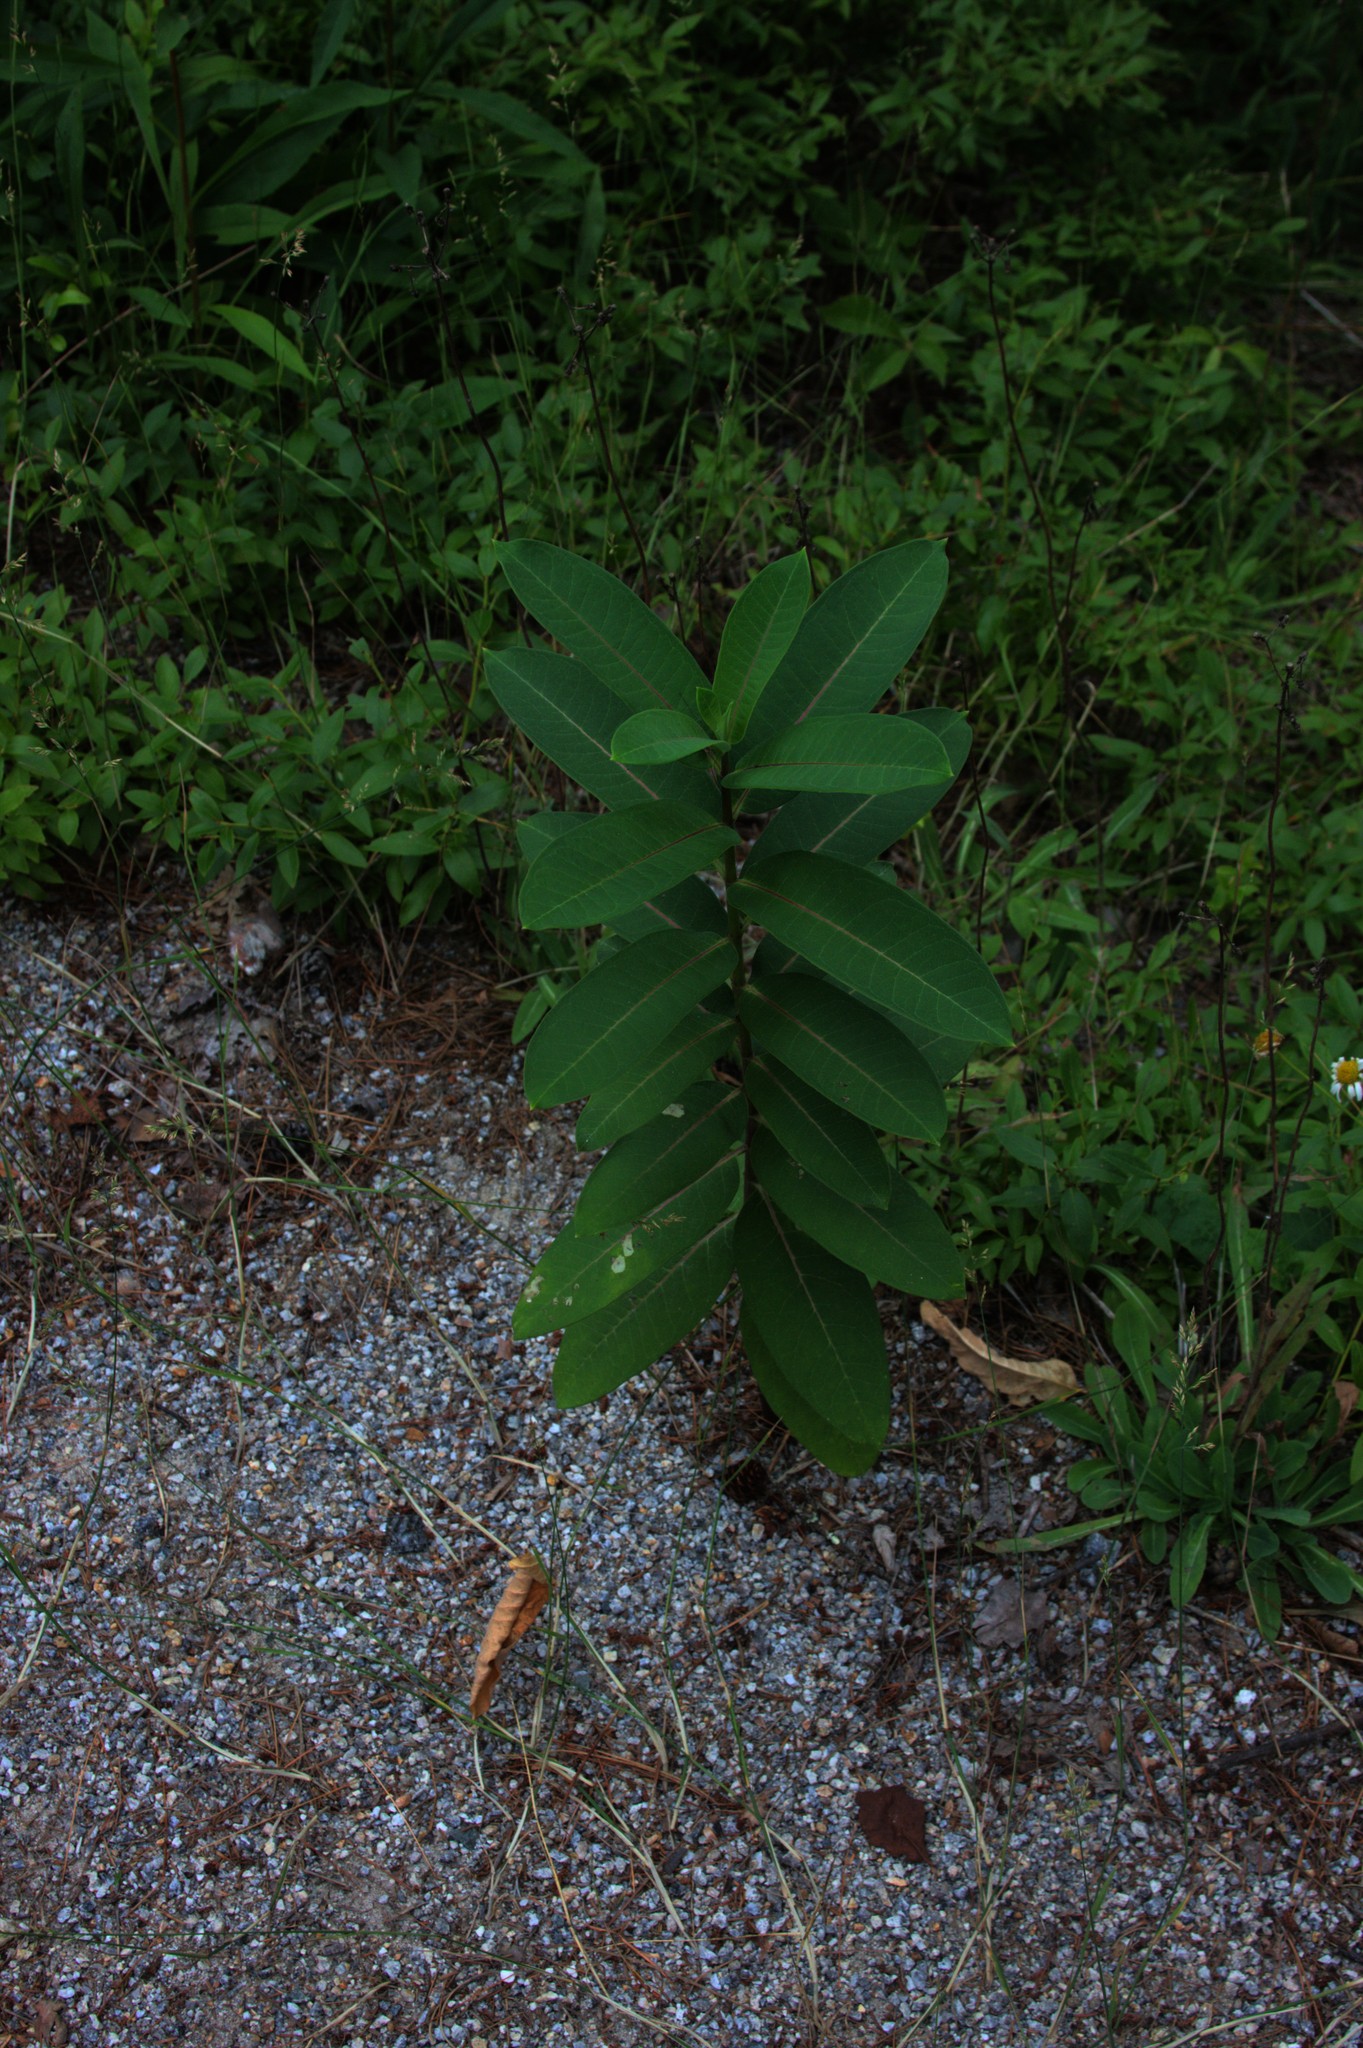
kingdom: Plantae
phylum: Tracheophyta
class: Magnoliopsida
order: Gentianales
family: Apocynaceae
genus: Asclepias
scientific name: Asclepias syriaca
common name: Common milkweed
